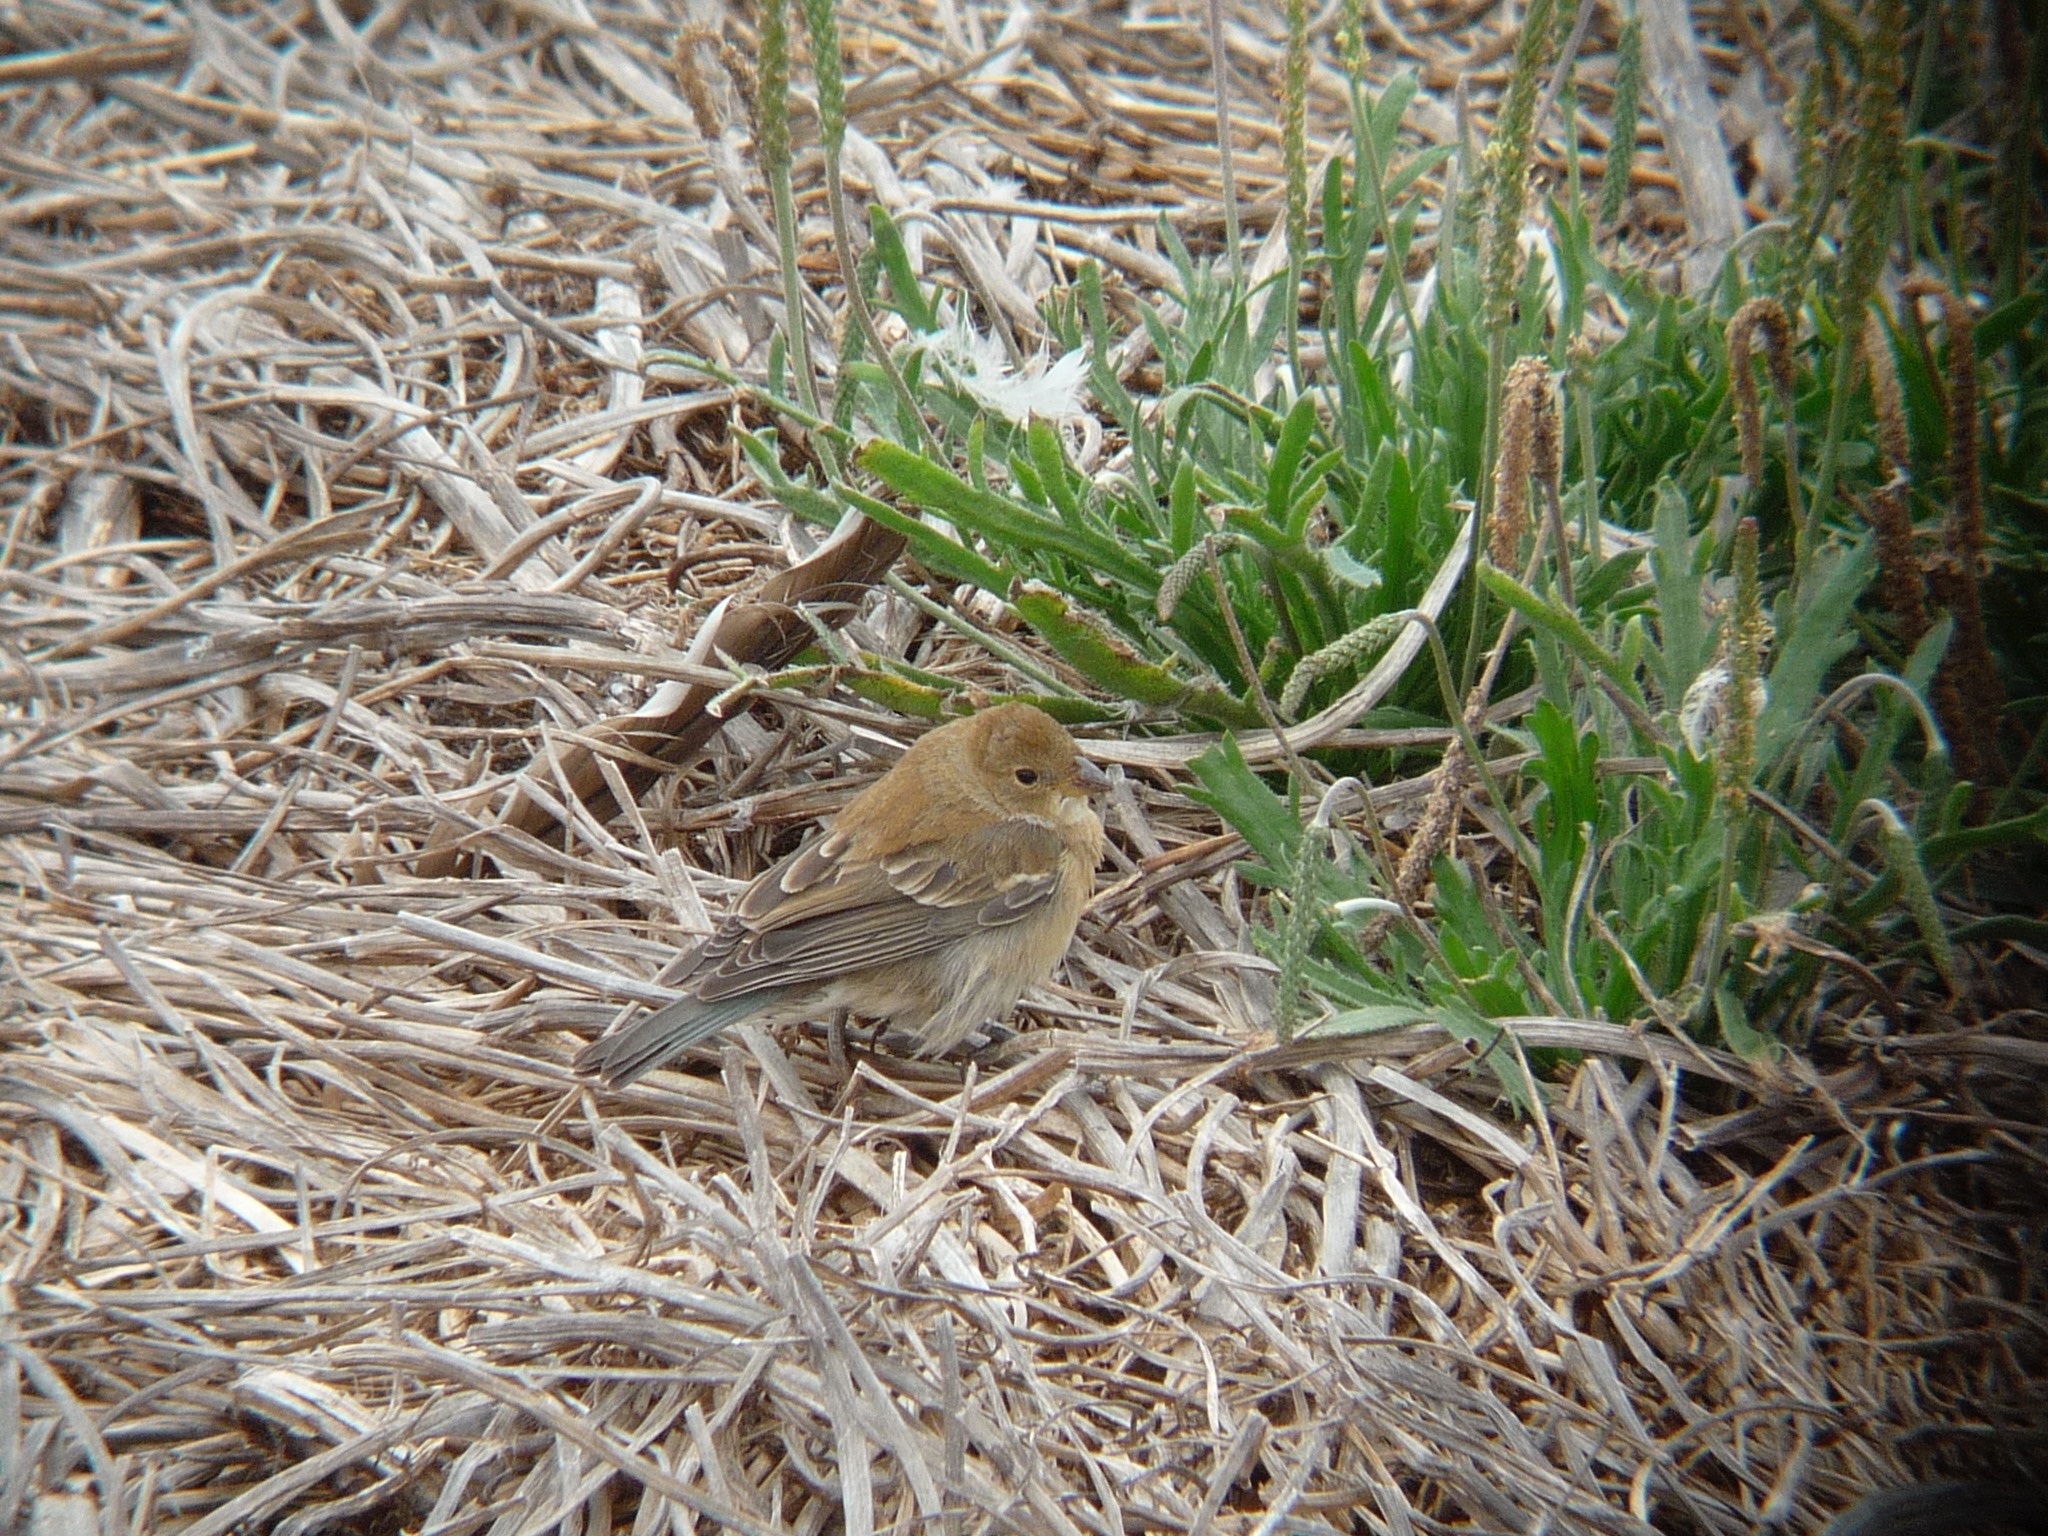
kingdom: Animalia
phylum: Chordata
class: Aves
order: Passeriformes
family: Cardinalidae
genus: Passerina
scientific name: Passerina amoena
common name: Lazuli bunting
